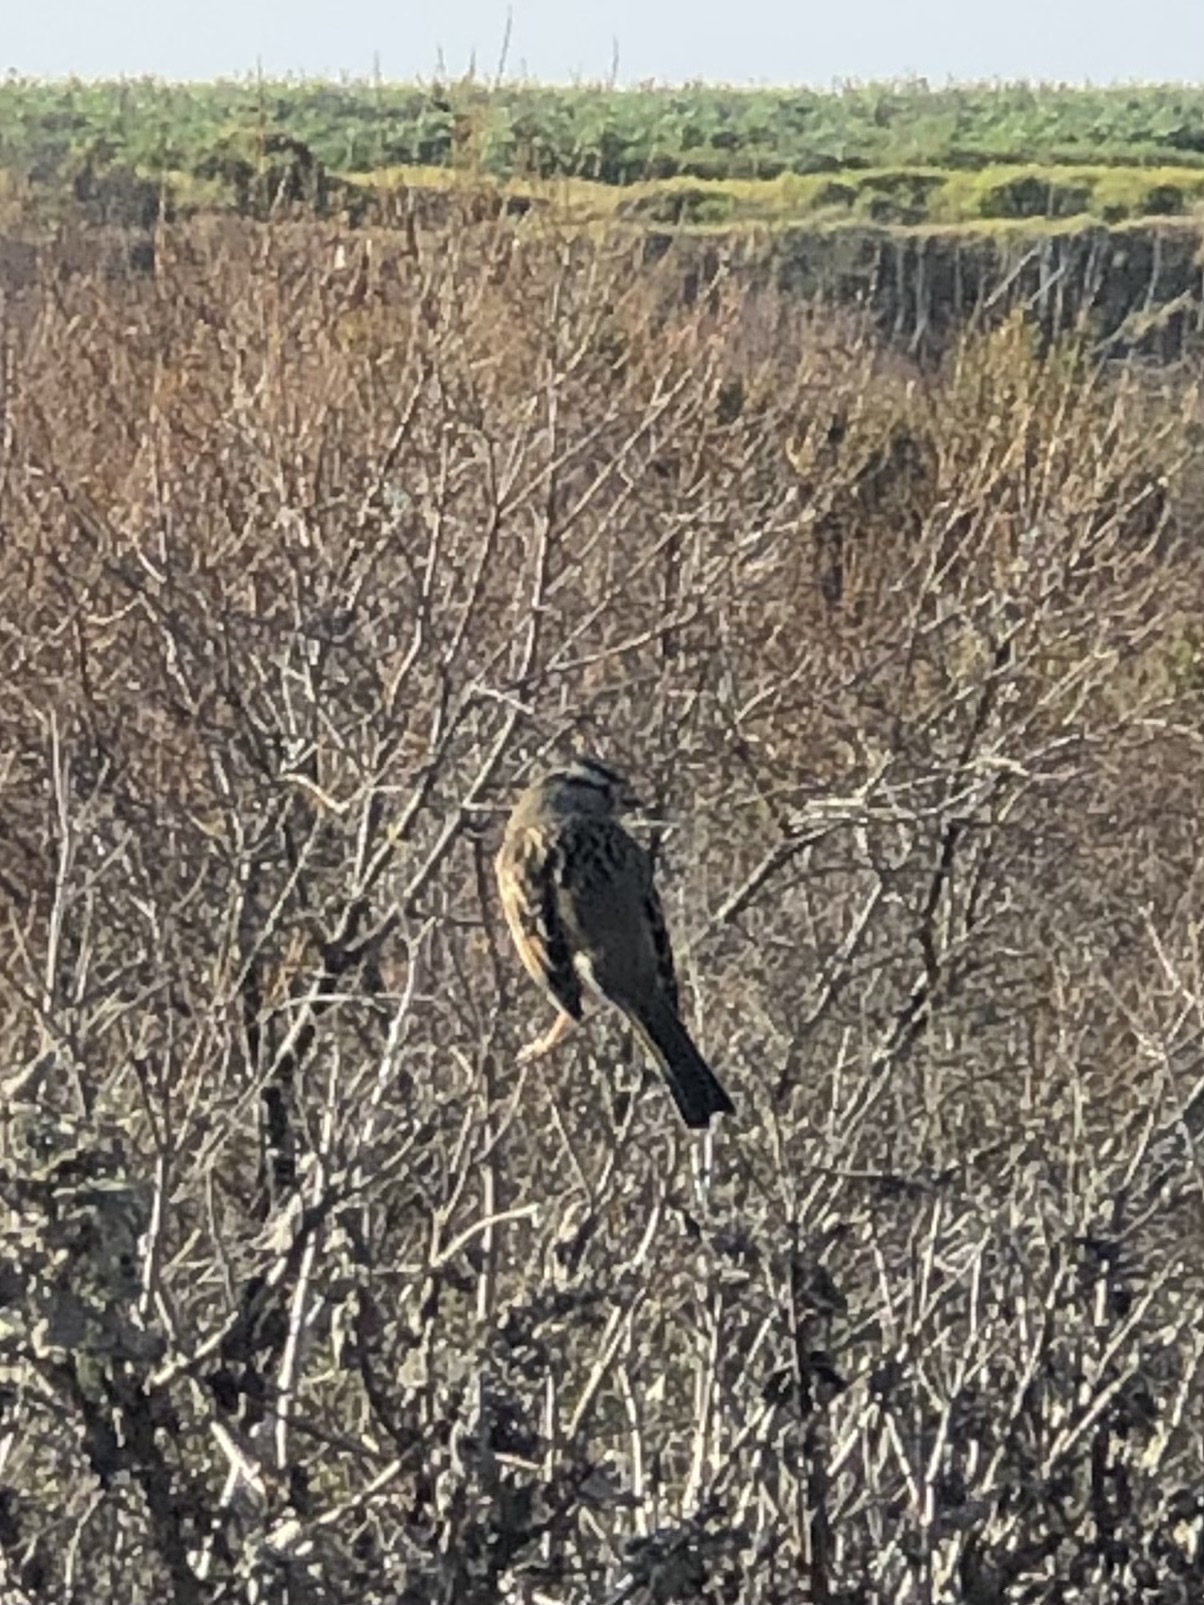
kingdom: Animalia
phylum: Chordata
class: Aves
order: Passeriformes
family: Passerellidae
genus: Zonotrichia
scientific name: Zonotrichia leucophrys
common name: White-crowned sparrow
